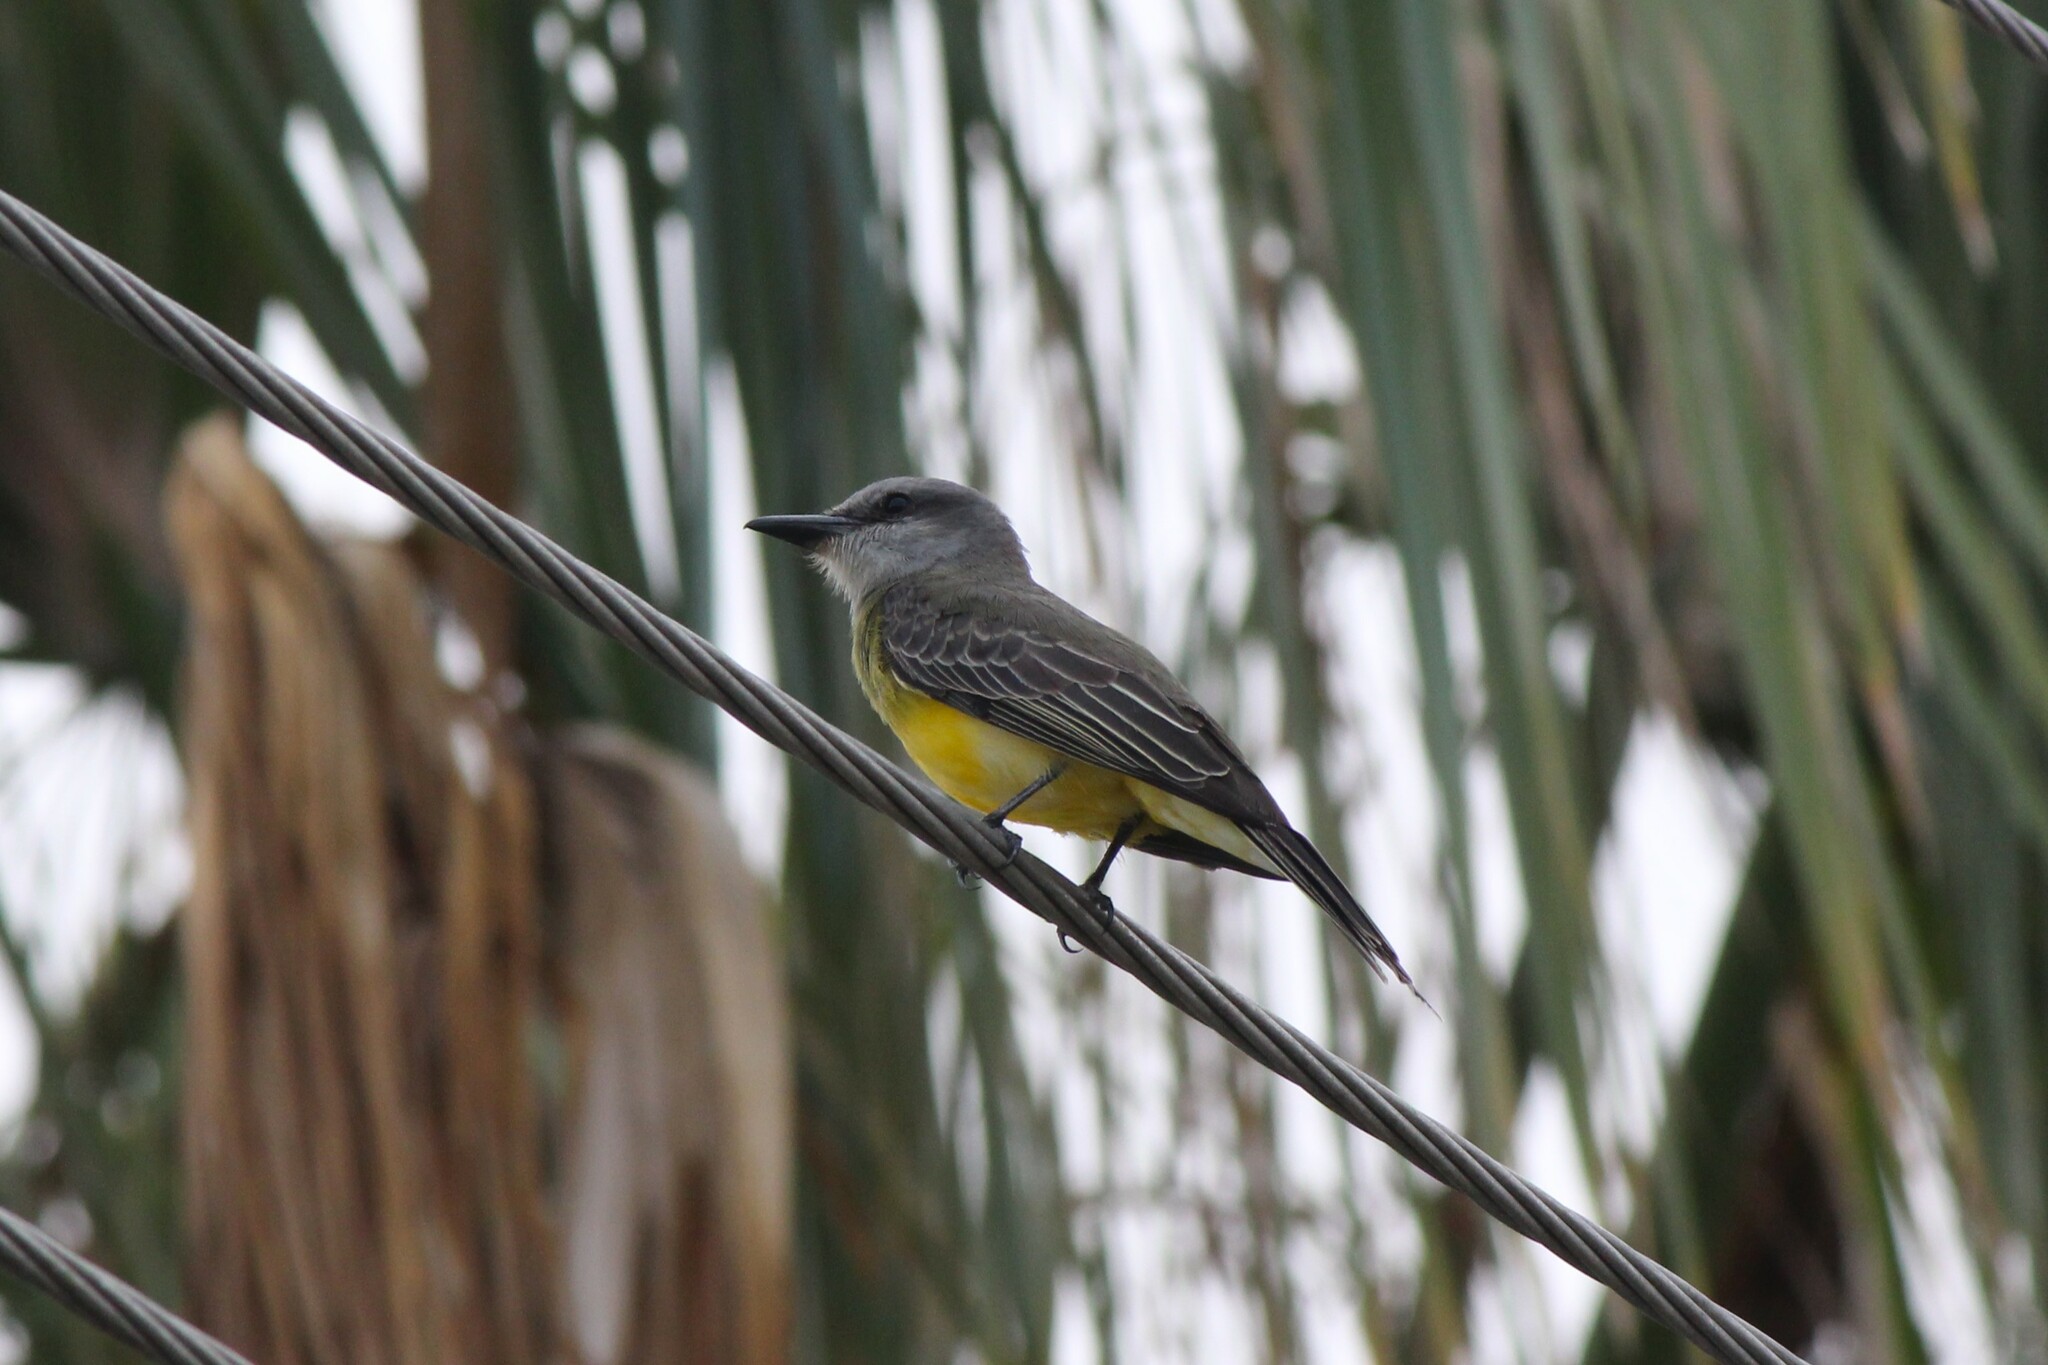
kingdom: Animalia
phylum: Chordata
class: Aves
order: Passeriformes
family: Tyrannidae
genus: Tyrannus
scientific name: Tyrannus melancholicus
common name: Tropical kingbird
